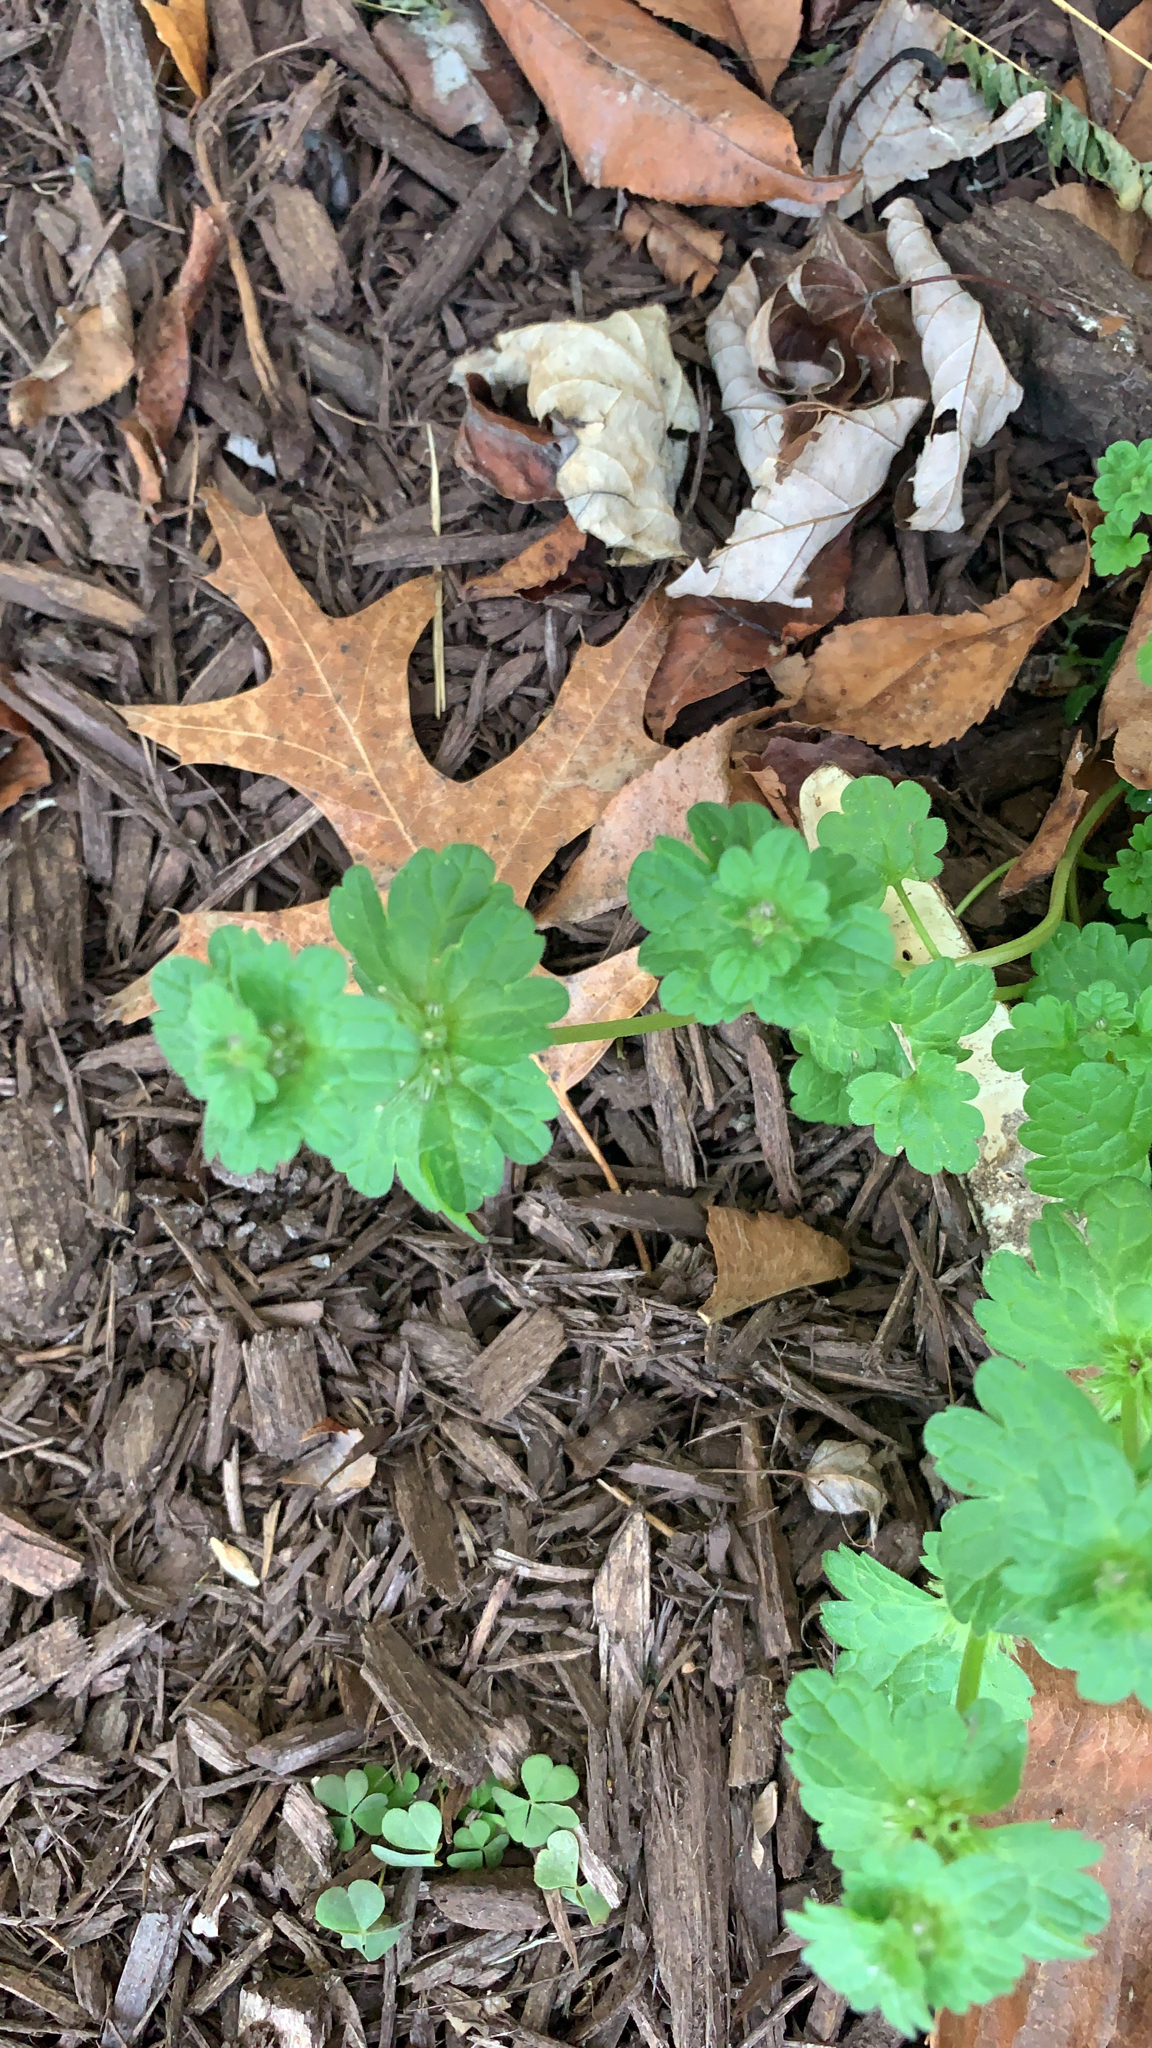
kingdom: Plantae
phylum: Tracheophyta
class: Magnoliopsida
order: Lamiales
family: Lamiaceae
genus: Lamium
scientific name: Lamium amplexicaule
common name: Henbit dead-nettle
